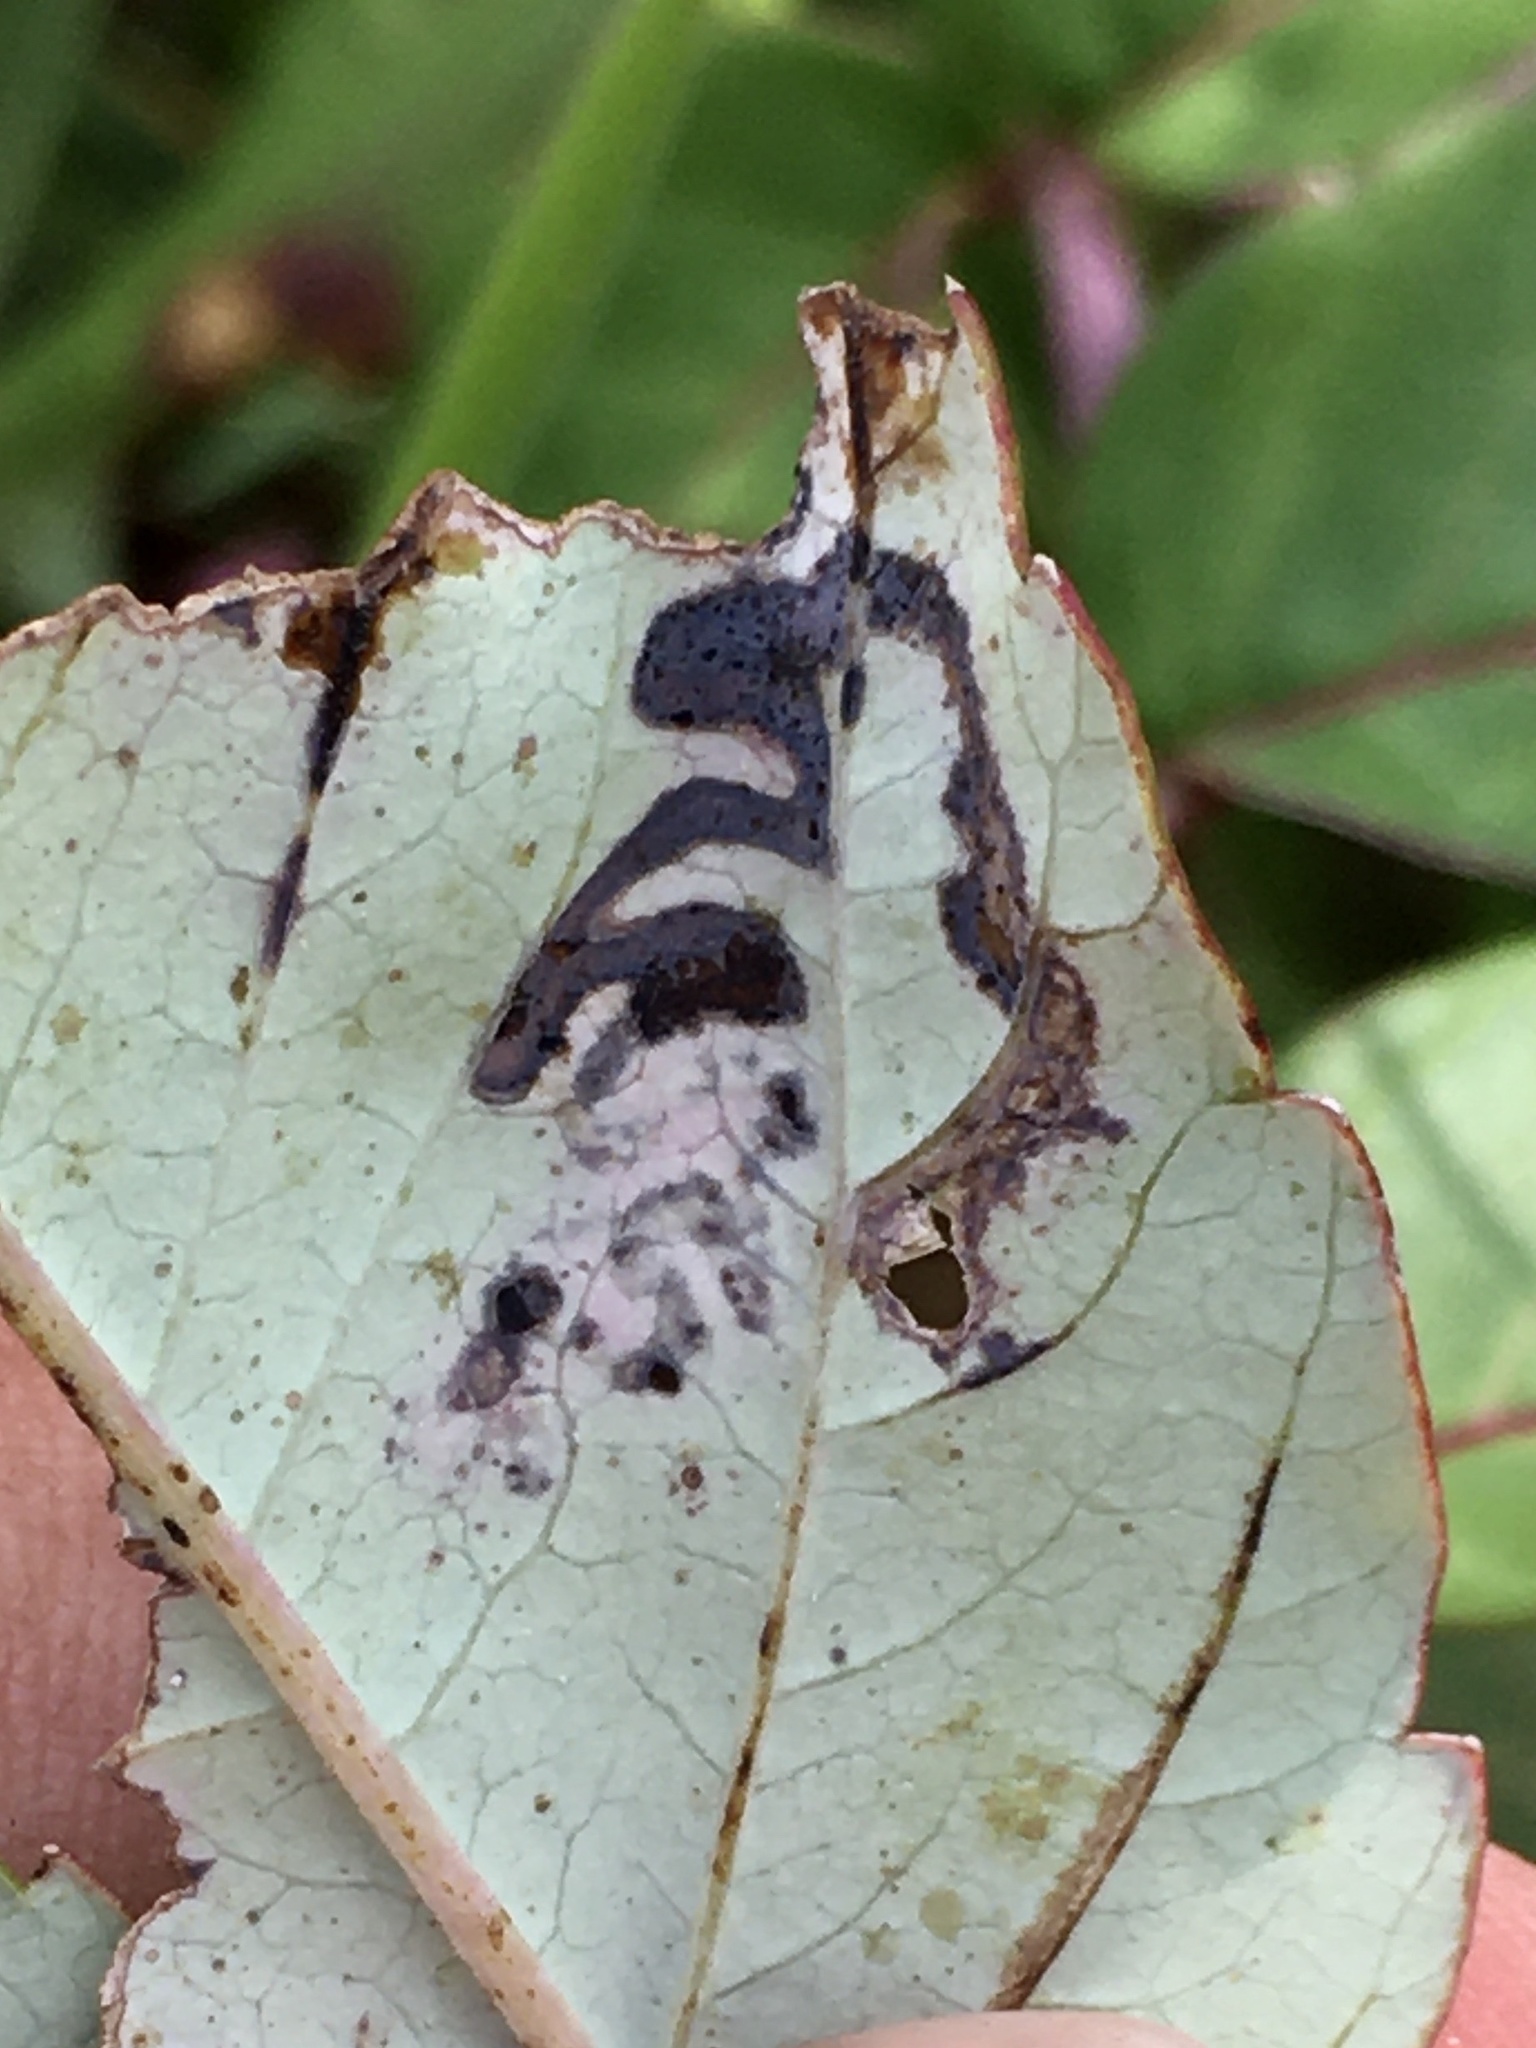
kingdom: Animalia
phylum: Arthropoda
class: Insecta
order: Lepidoptera
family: Nepticulidae
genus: Stigmella
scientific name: Stigmella intermedia
